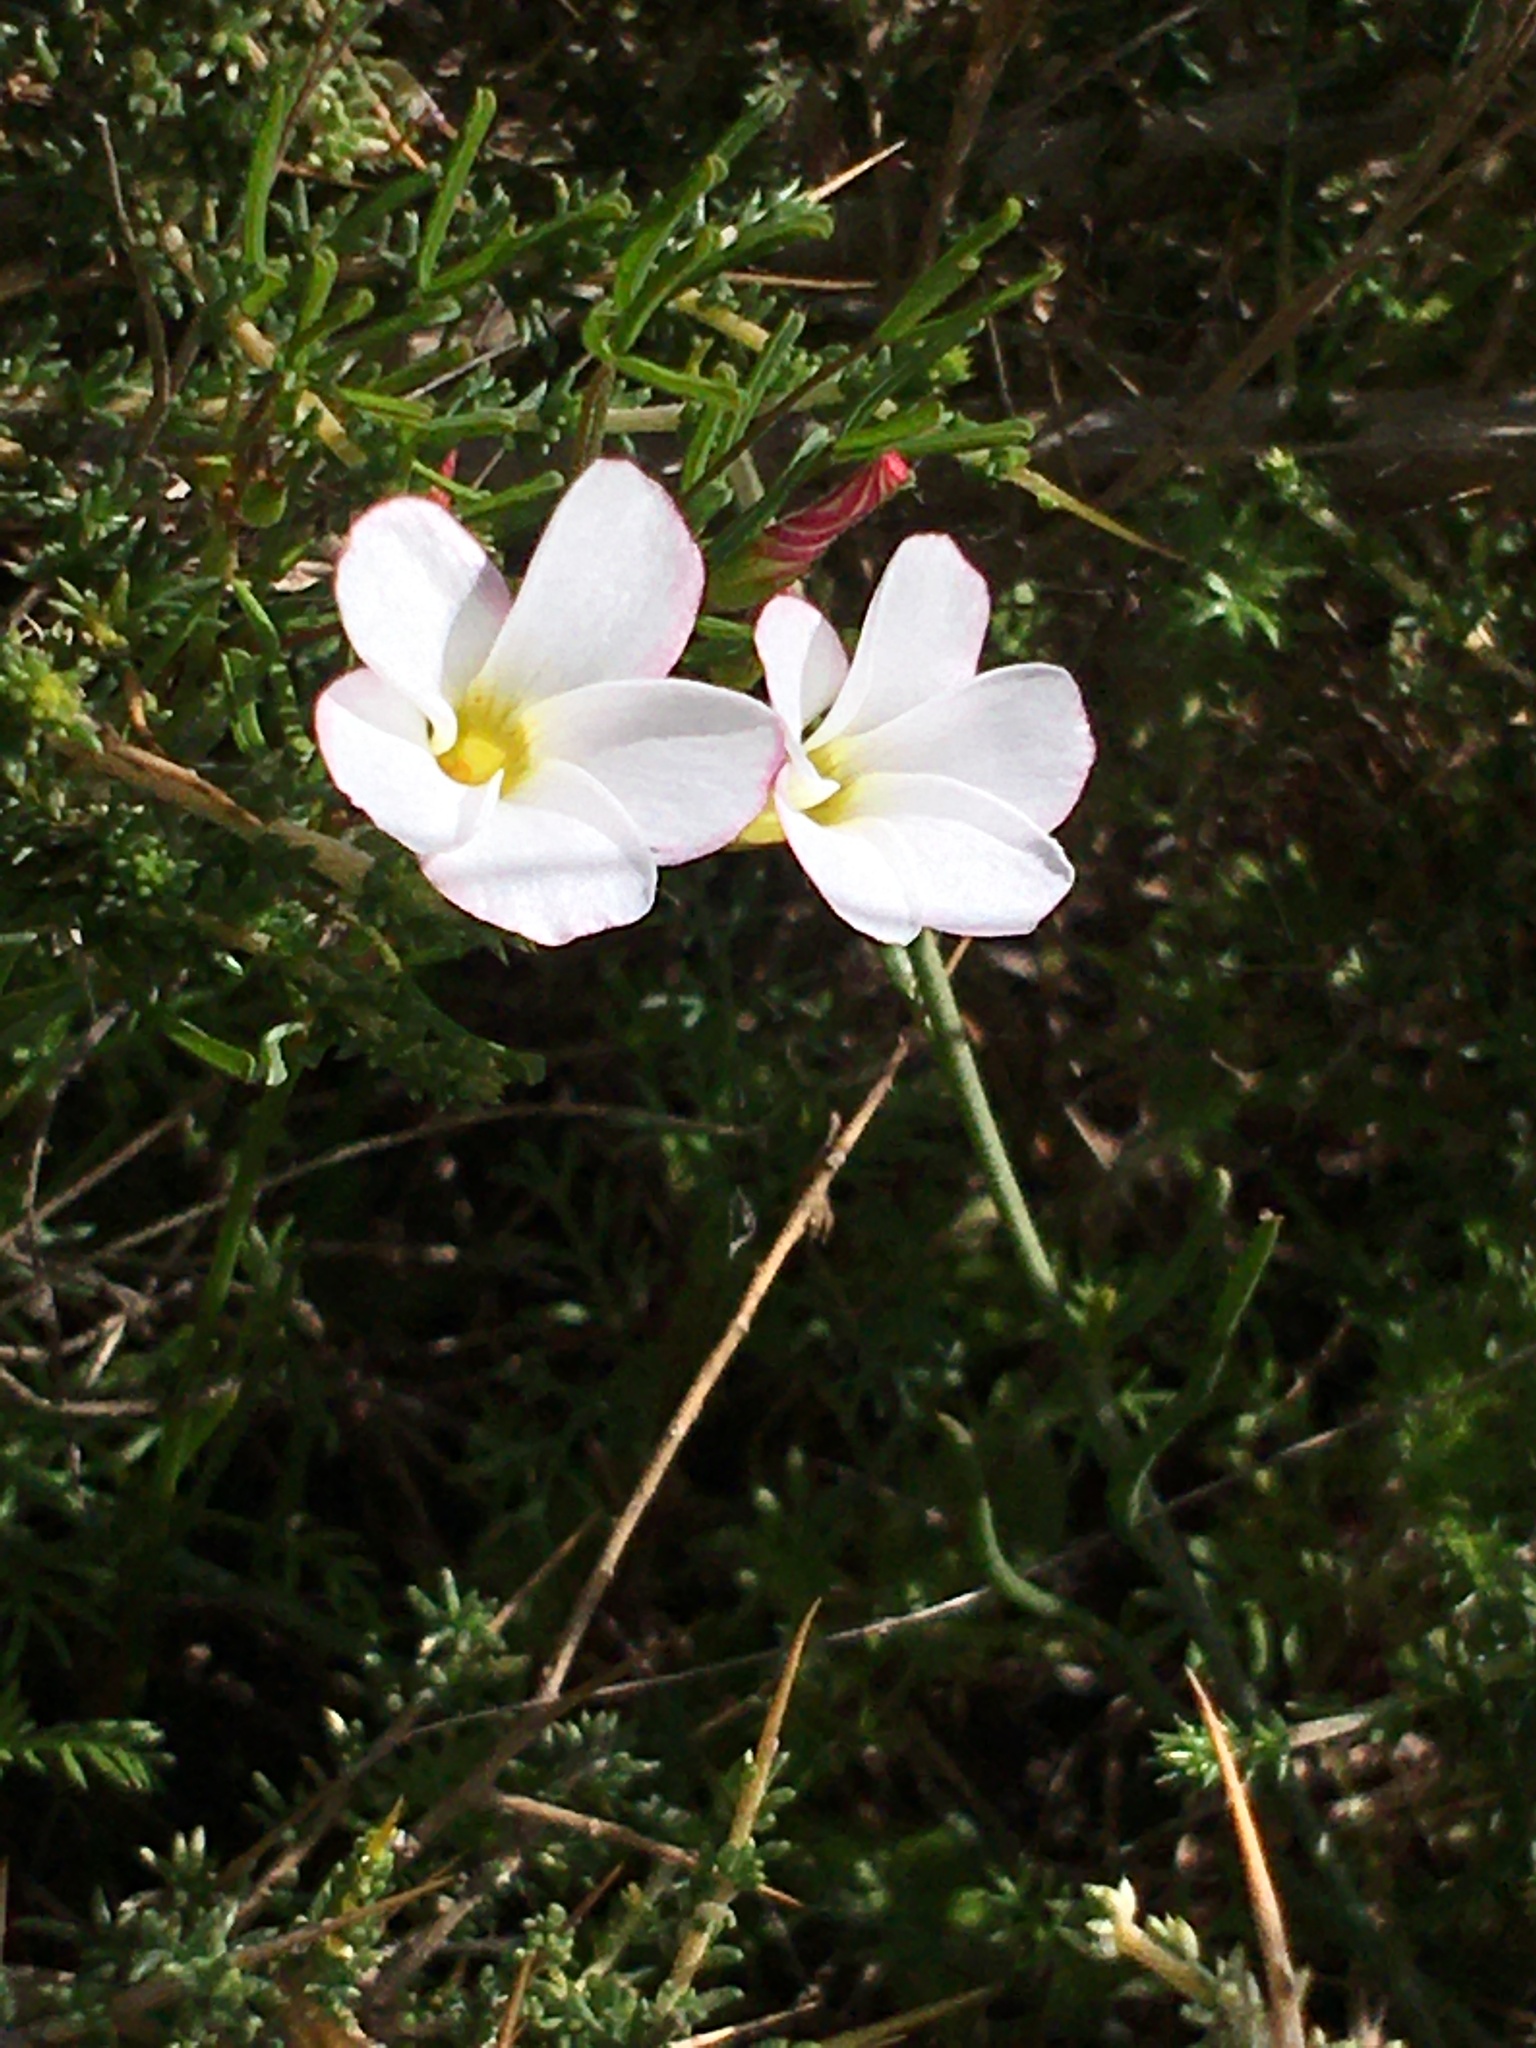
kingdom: Plantae
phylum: Tracheophyta
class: Magnoliopsida
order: Oxalidales
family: Oxalidaceae
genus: Oxalis
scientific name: Oxalis versicolor
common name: Peppermint rock oxalis
